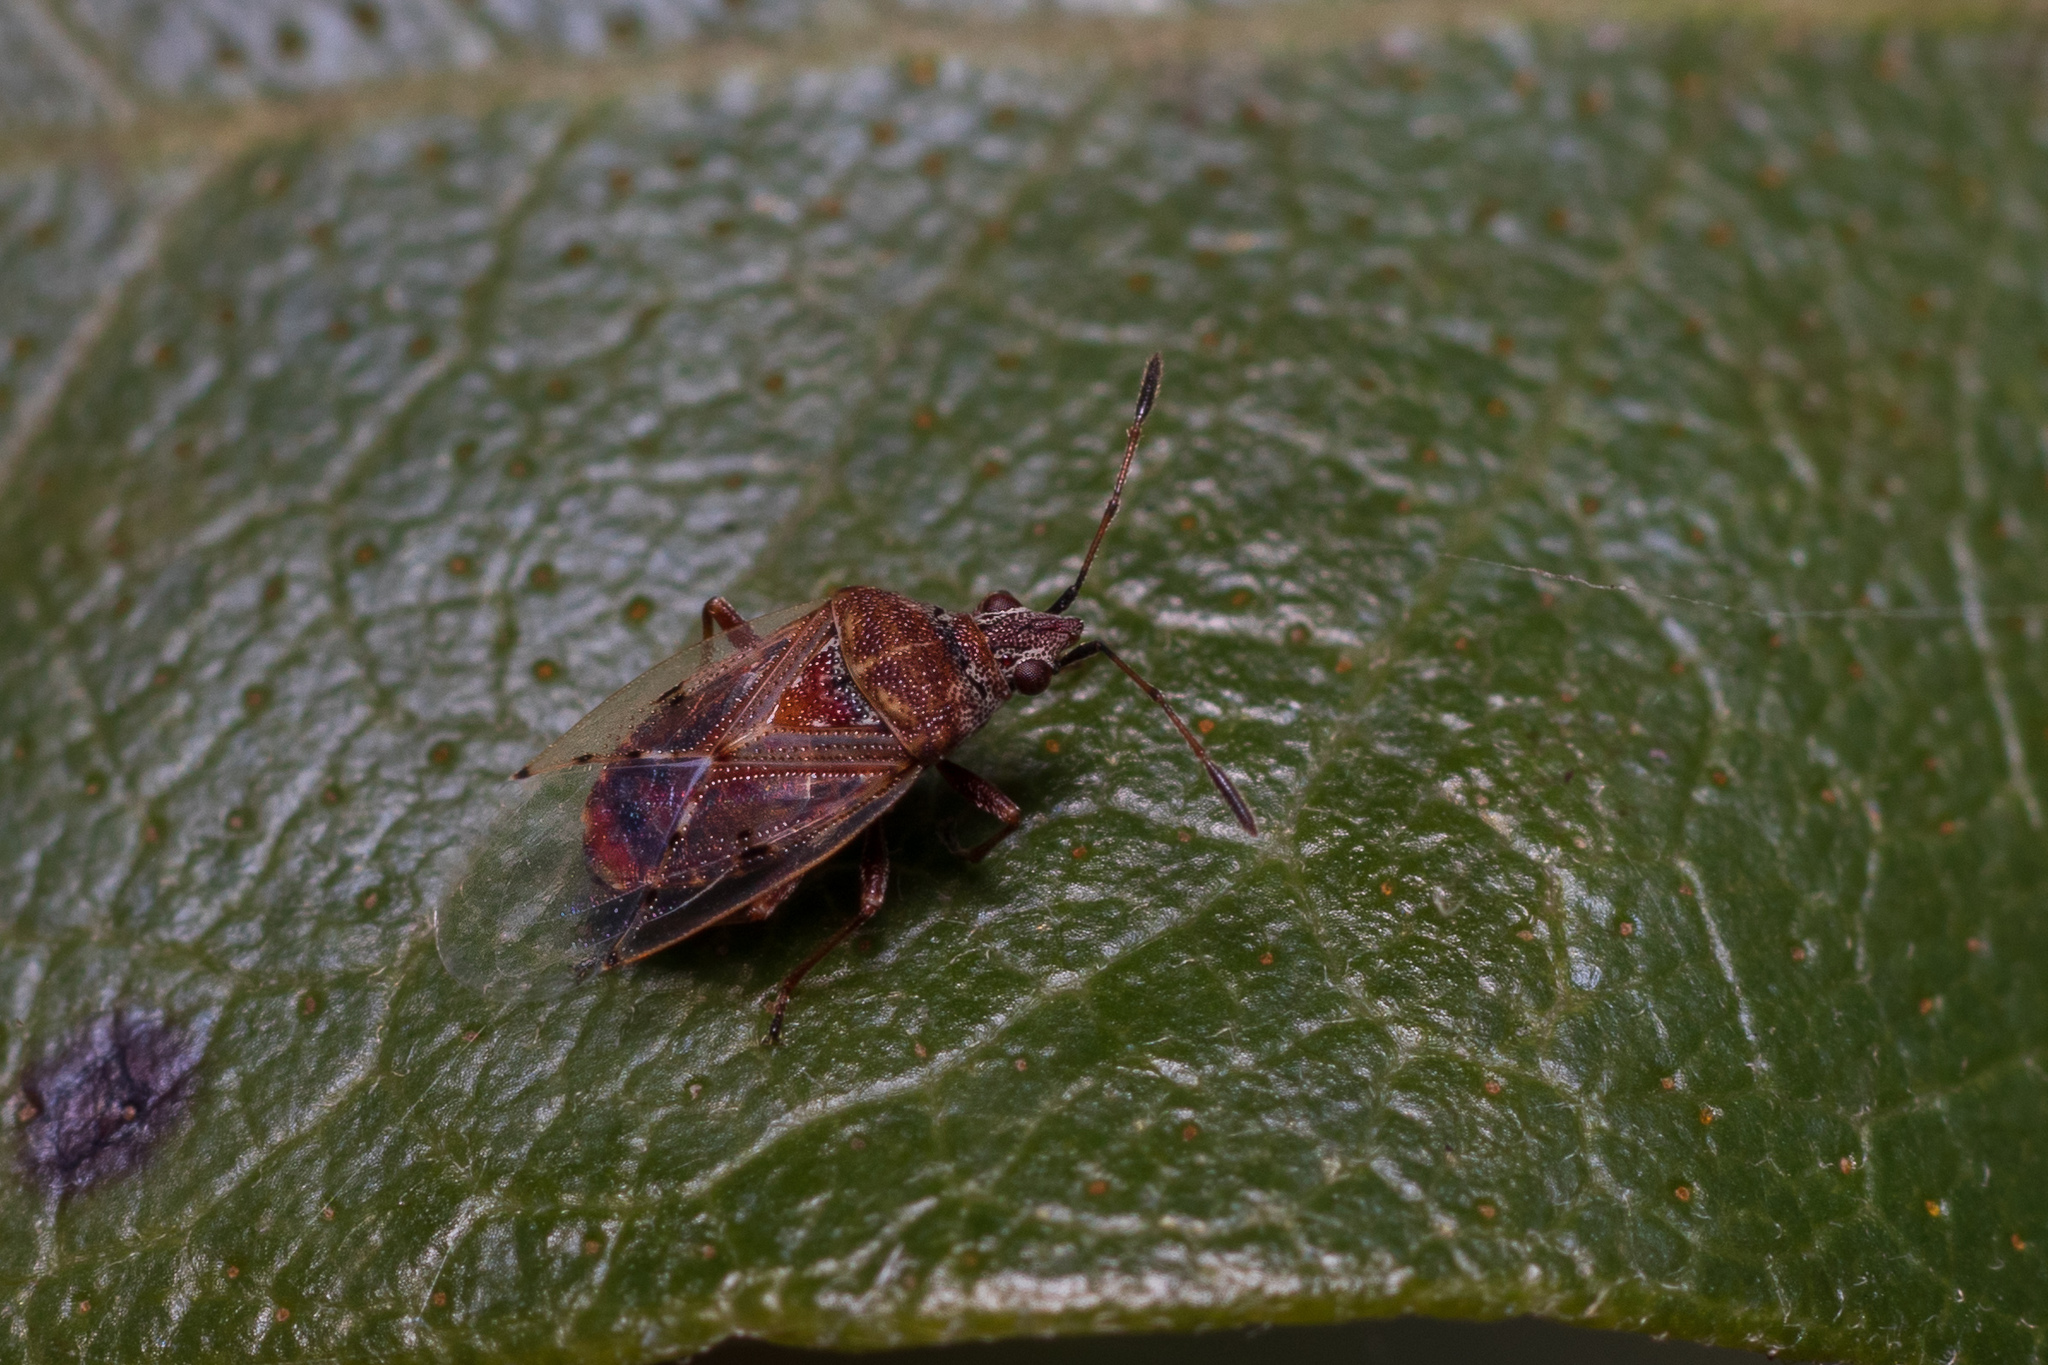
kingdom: Animalia
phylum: Arthropoda
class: Insecta
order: Hemiptera
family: Lygaeidae
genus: Kleidocerys
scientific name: Kleidocerys resedae
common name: Birch catkin bug
